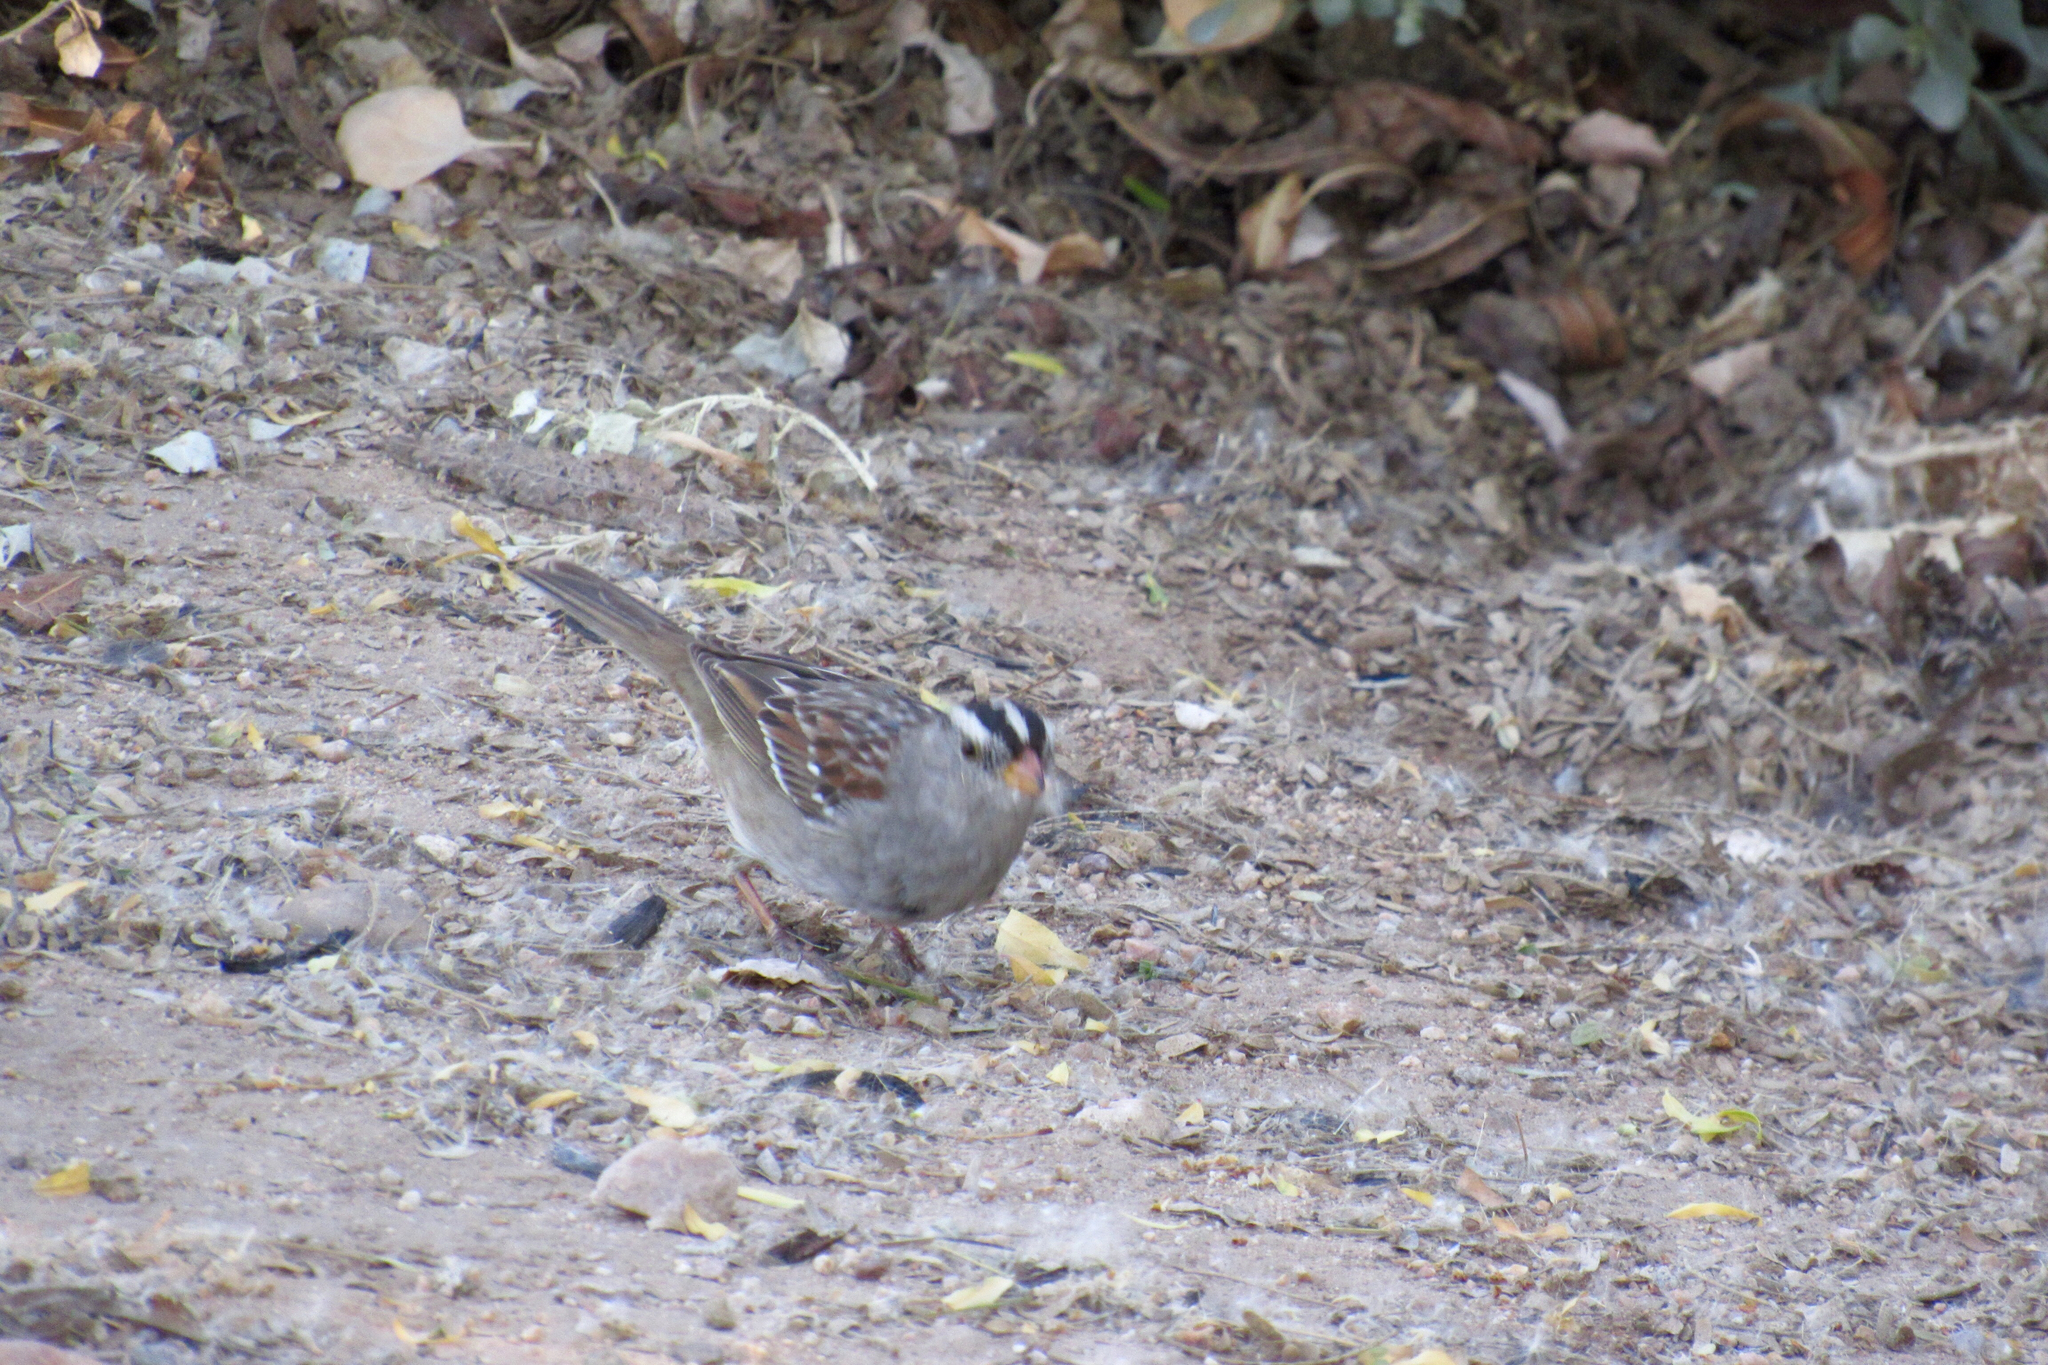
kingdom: Animalia
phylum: Chordata
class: Aves
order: Passeriformes
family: Passerellidae
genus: Zonotrichia
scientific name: Zonotrichia leucophrys
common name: White-crowned sparrow
